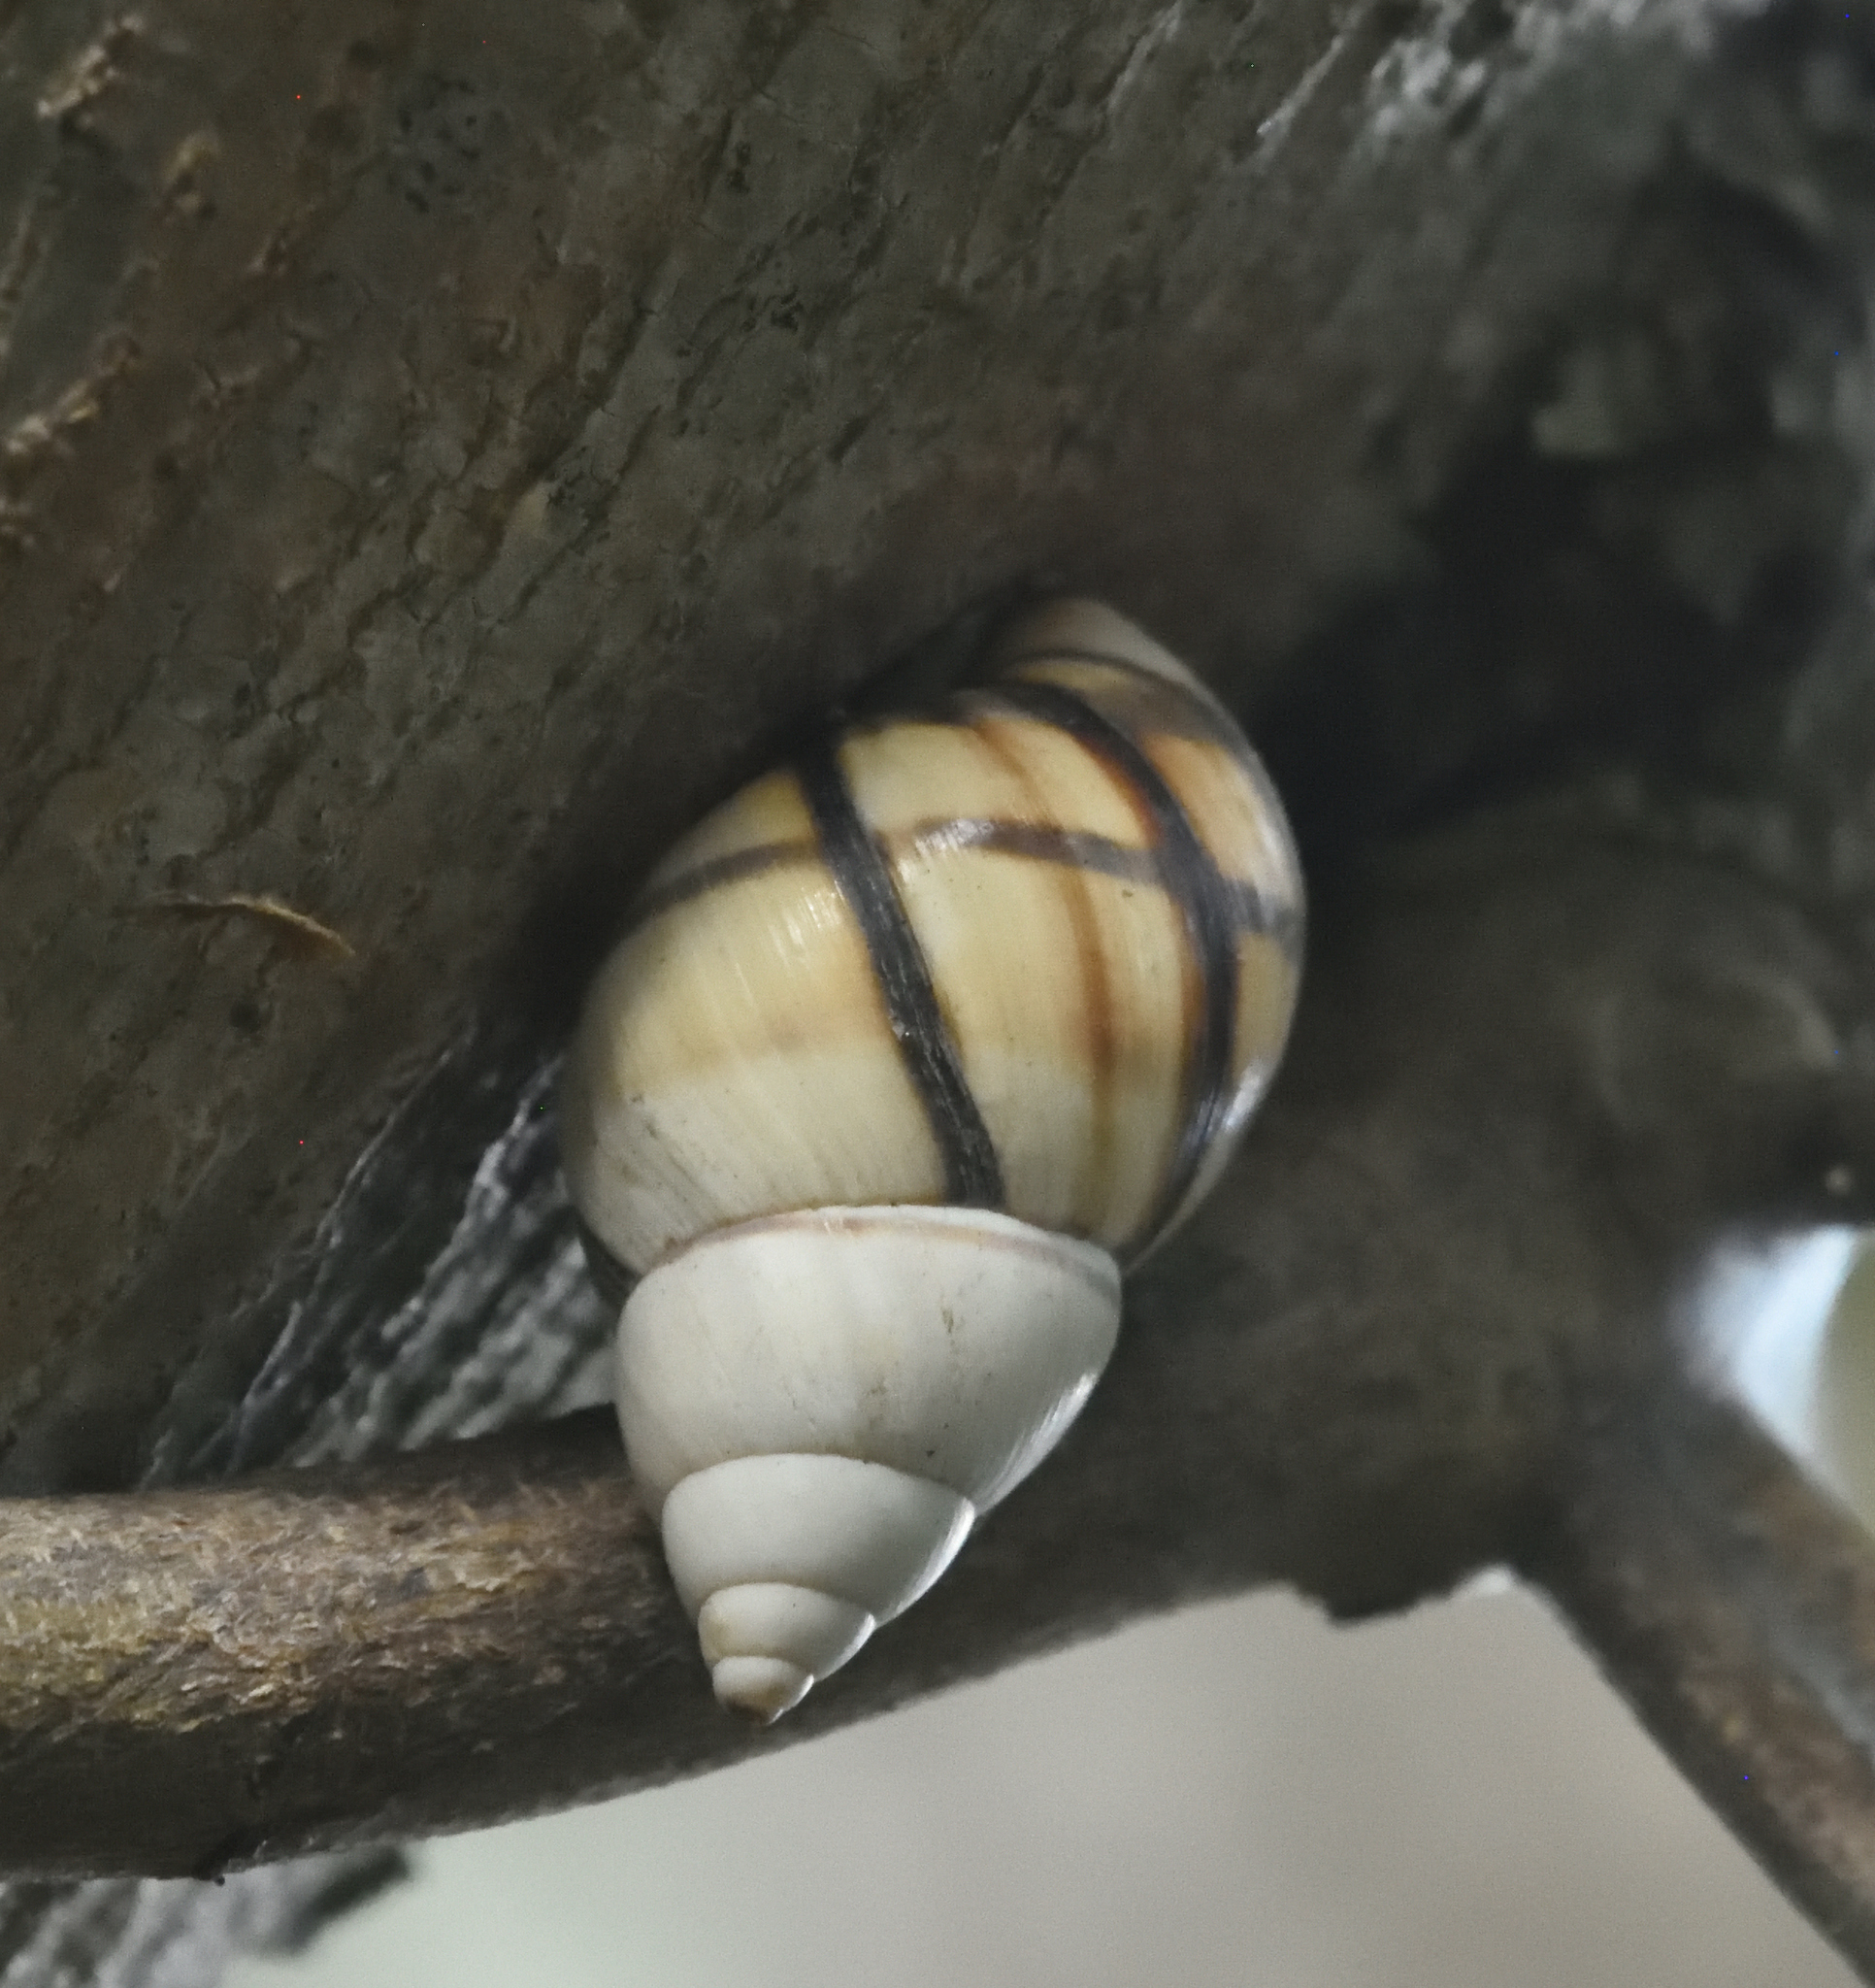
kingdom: Animalia
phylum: Mollusca
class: Gastropoda
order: Stylommatophora
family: Orthalicidae
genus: Orthalicus
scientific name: Orthalicus floridensis
